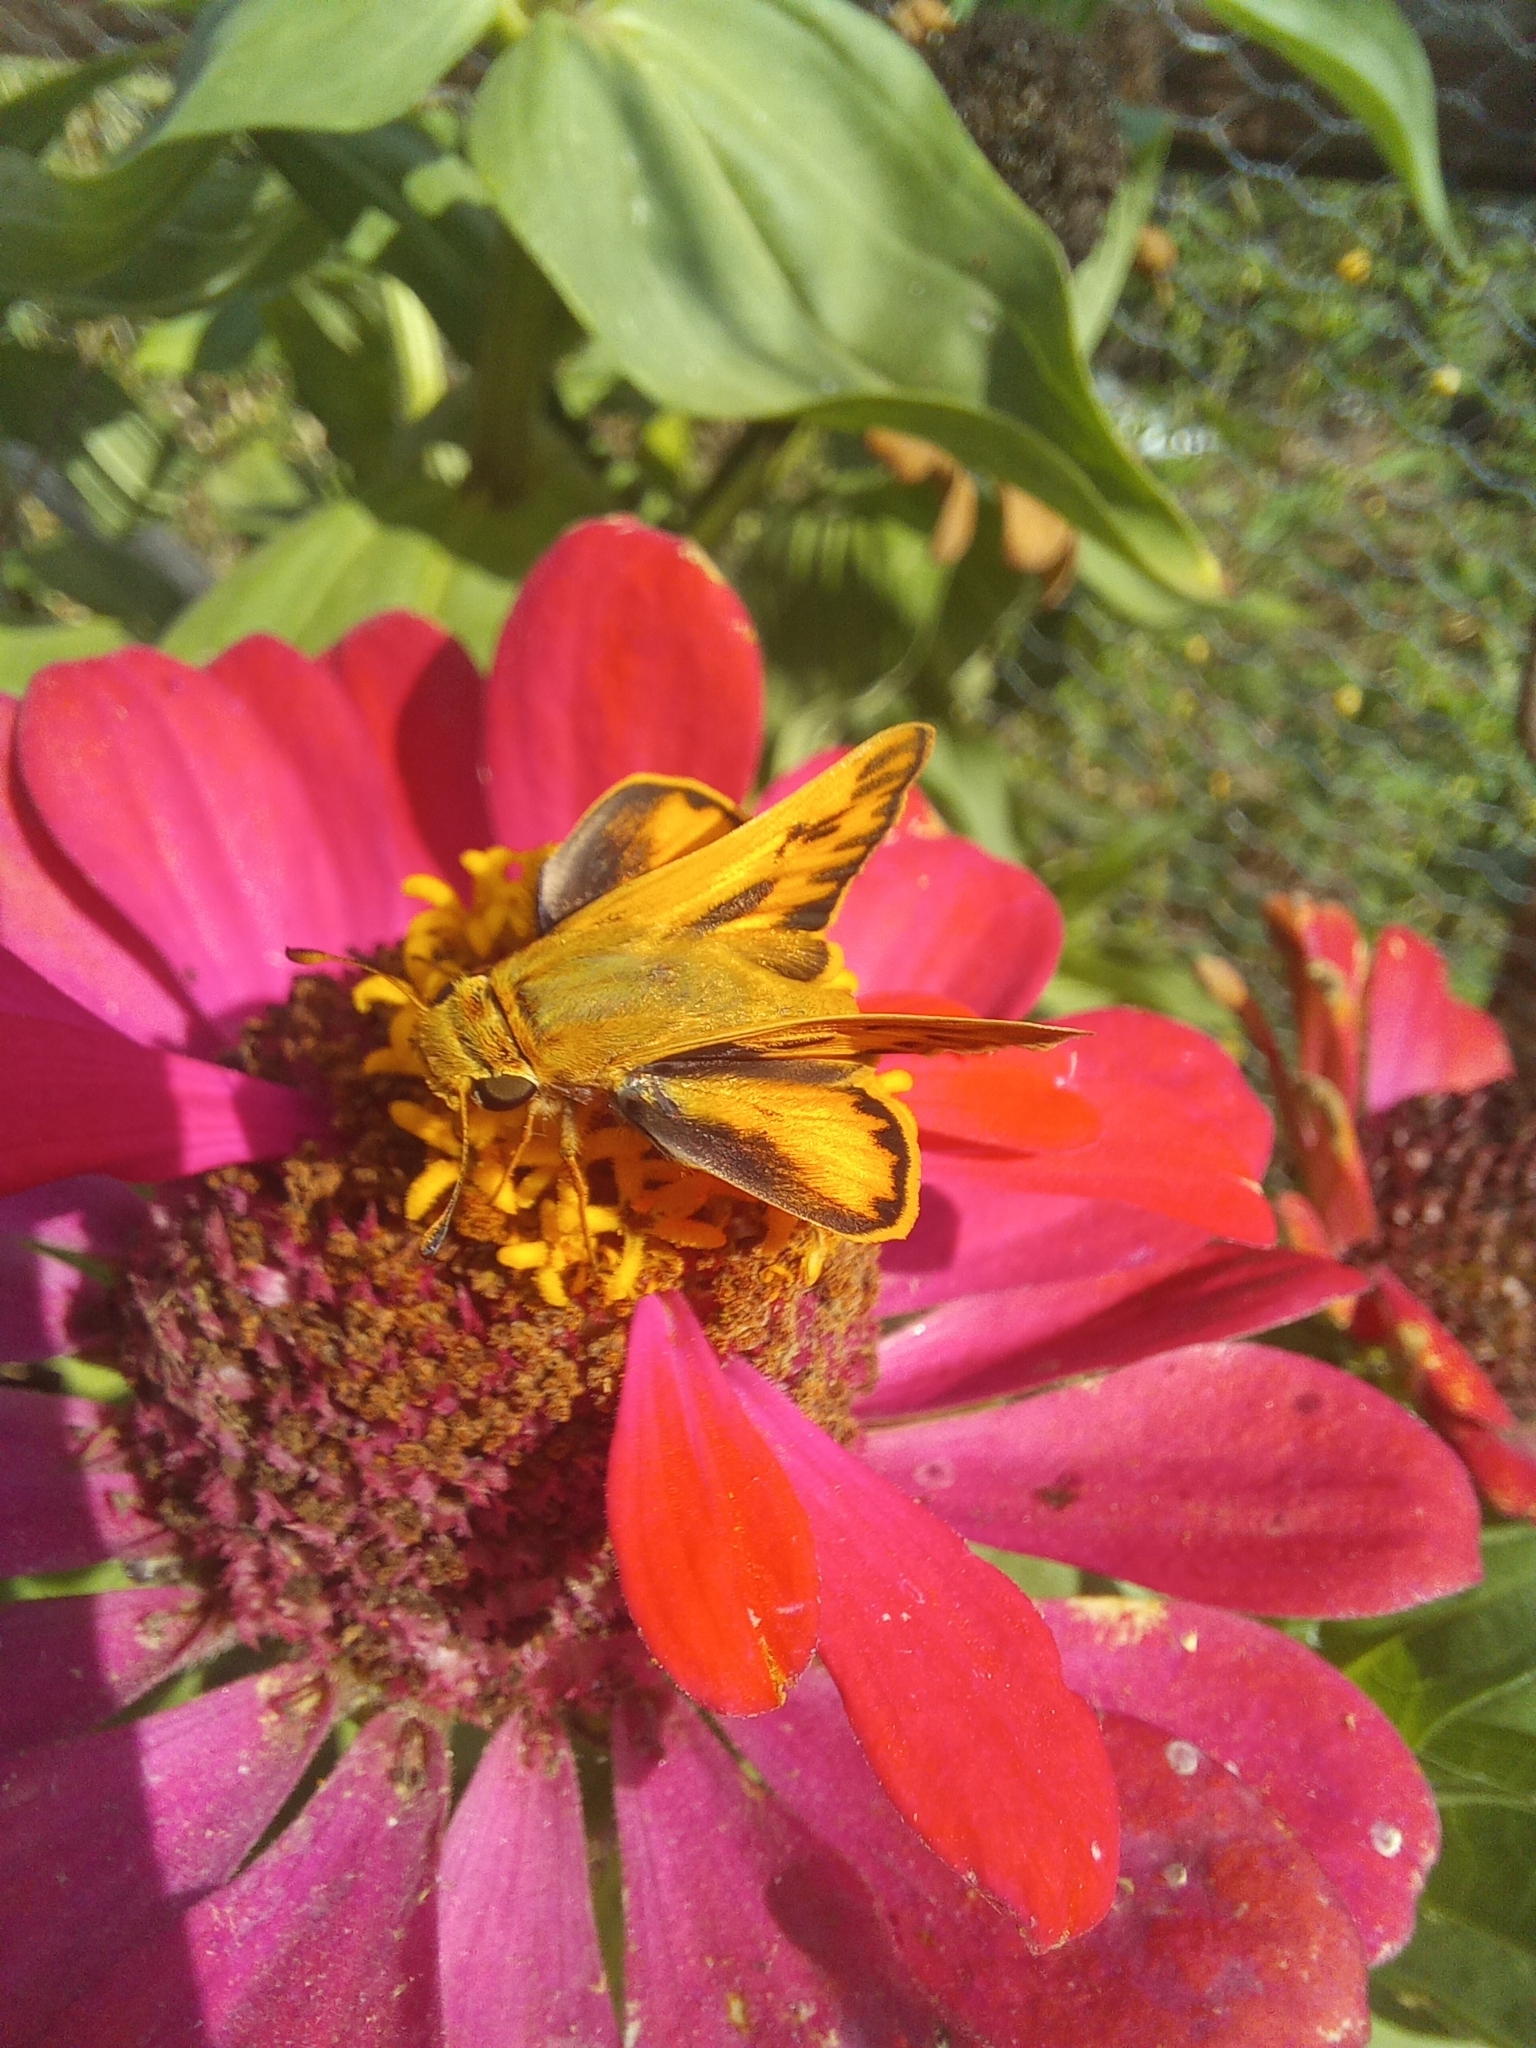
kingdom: Animalia
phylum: Arthropoda
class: Insecta
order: Lepidoptera
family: Hesperiidae
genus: Hylephila
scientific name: Hylephila phyleus
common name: Fiery skipper
